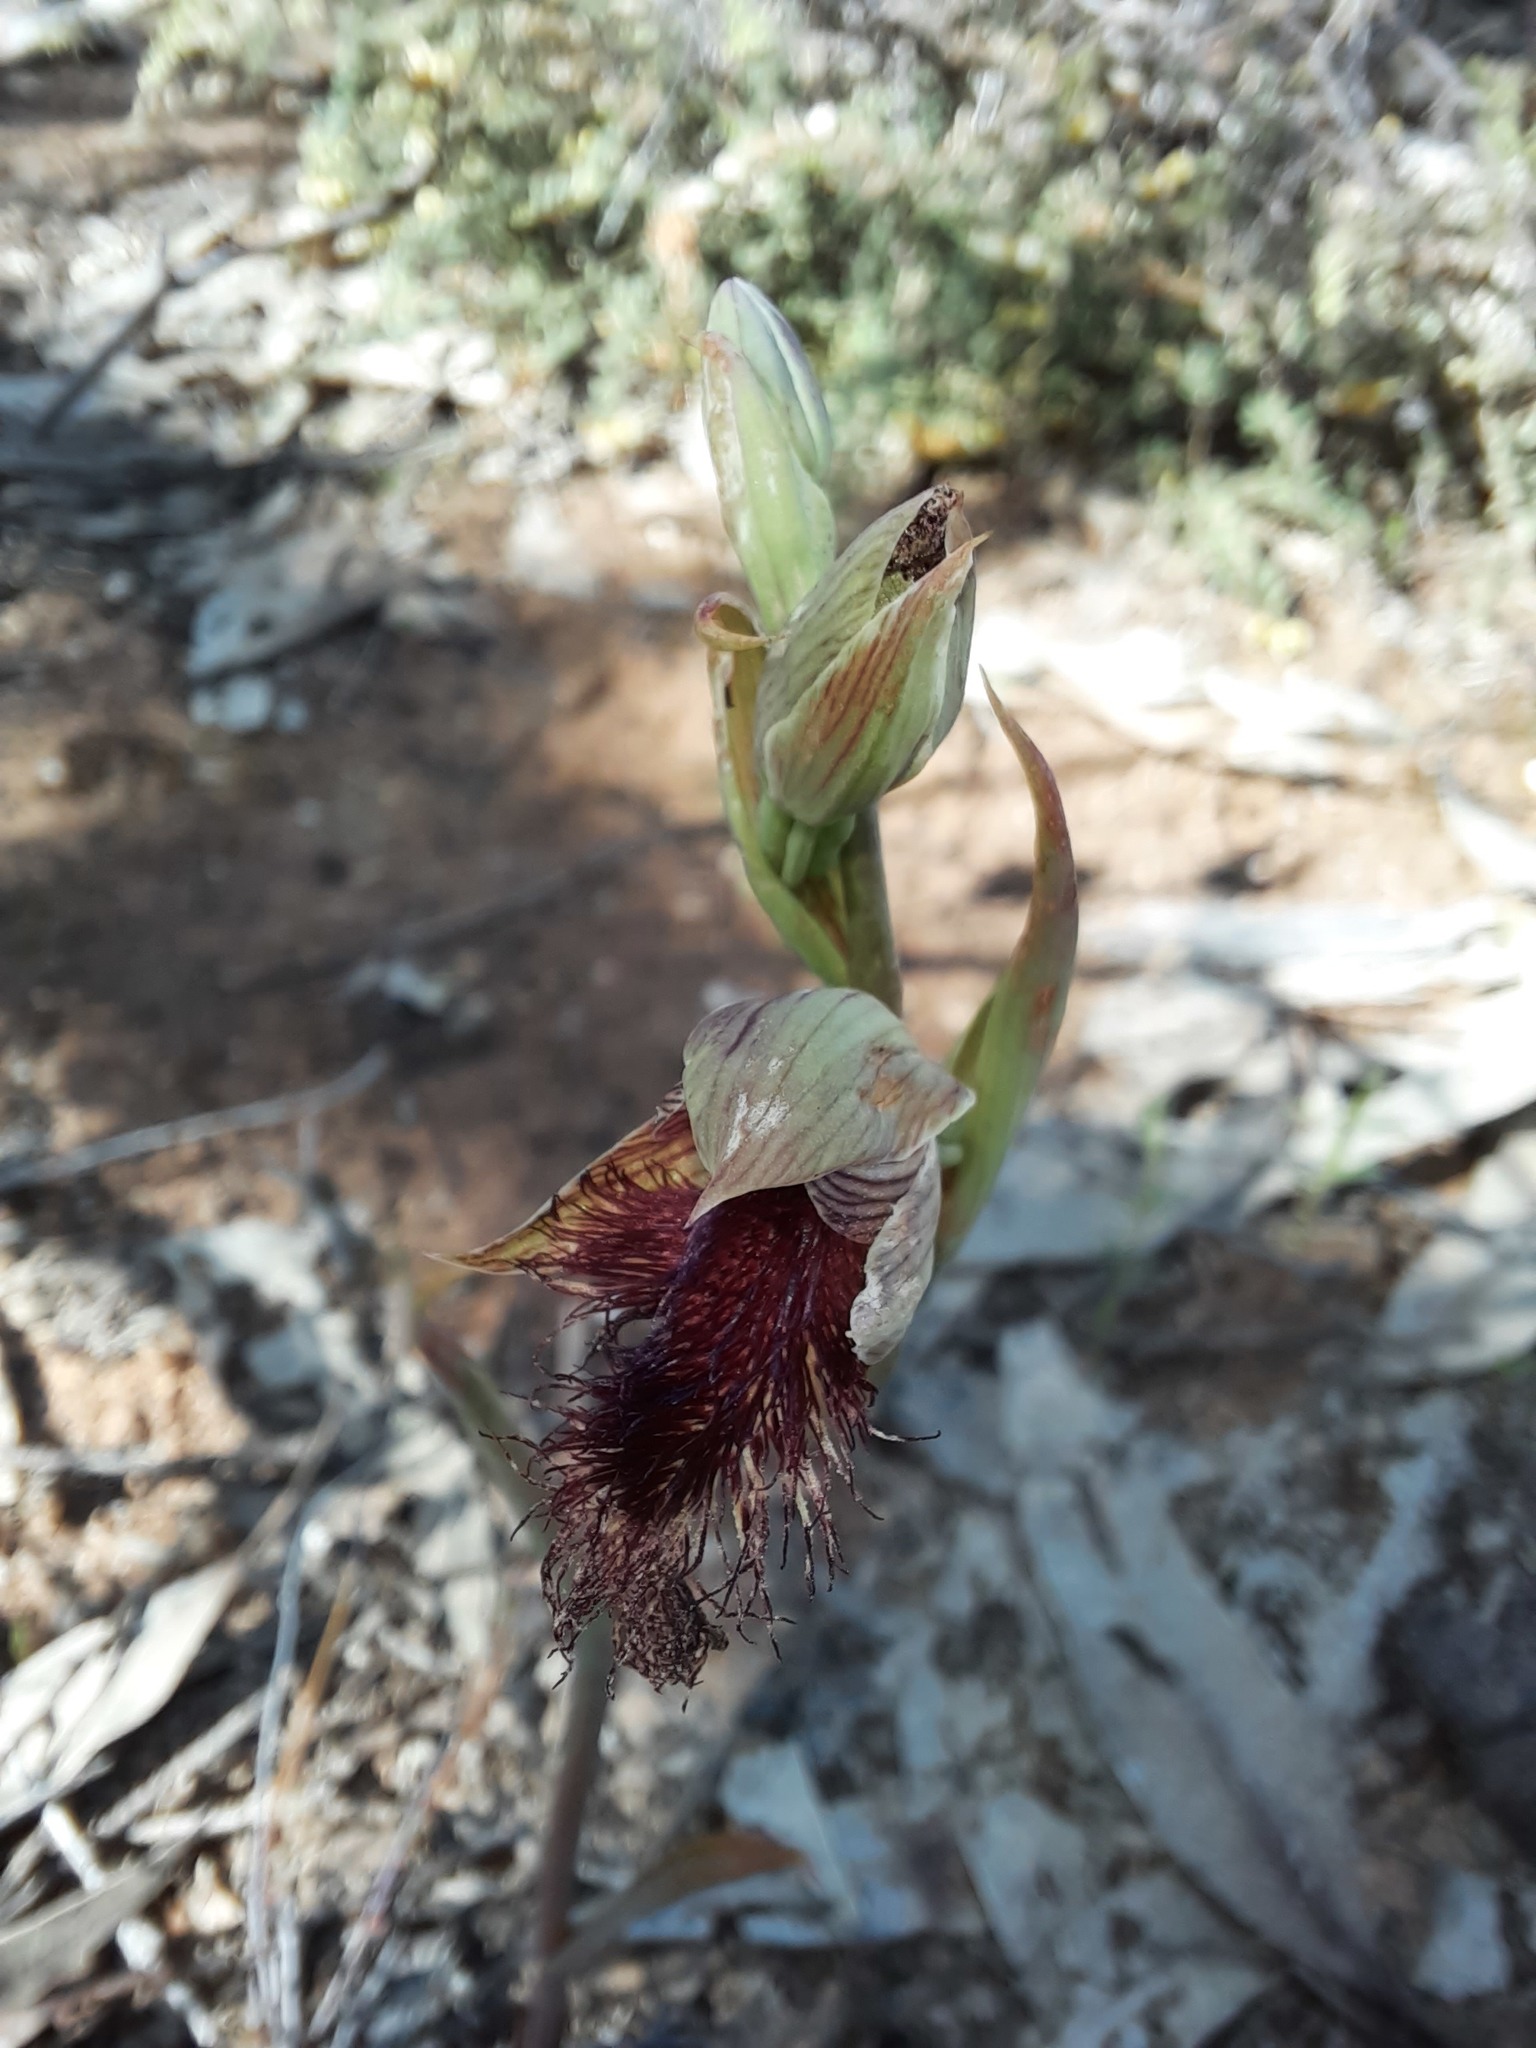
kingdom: Plantae
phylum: Tracheophyta
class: Liliopsida
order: Asparagales
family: Orchidaceae
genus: Calochilus
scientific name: Calochilus robertsonii
